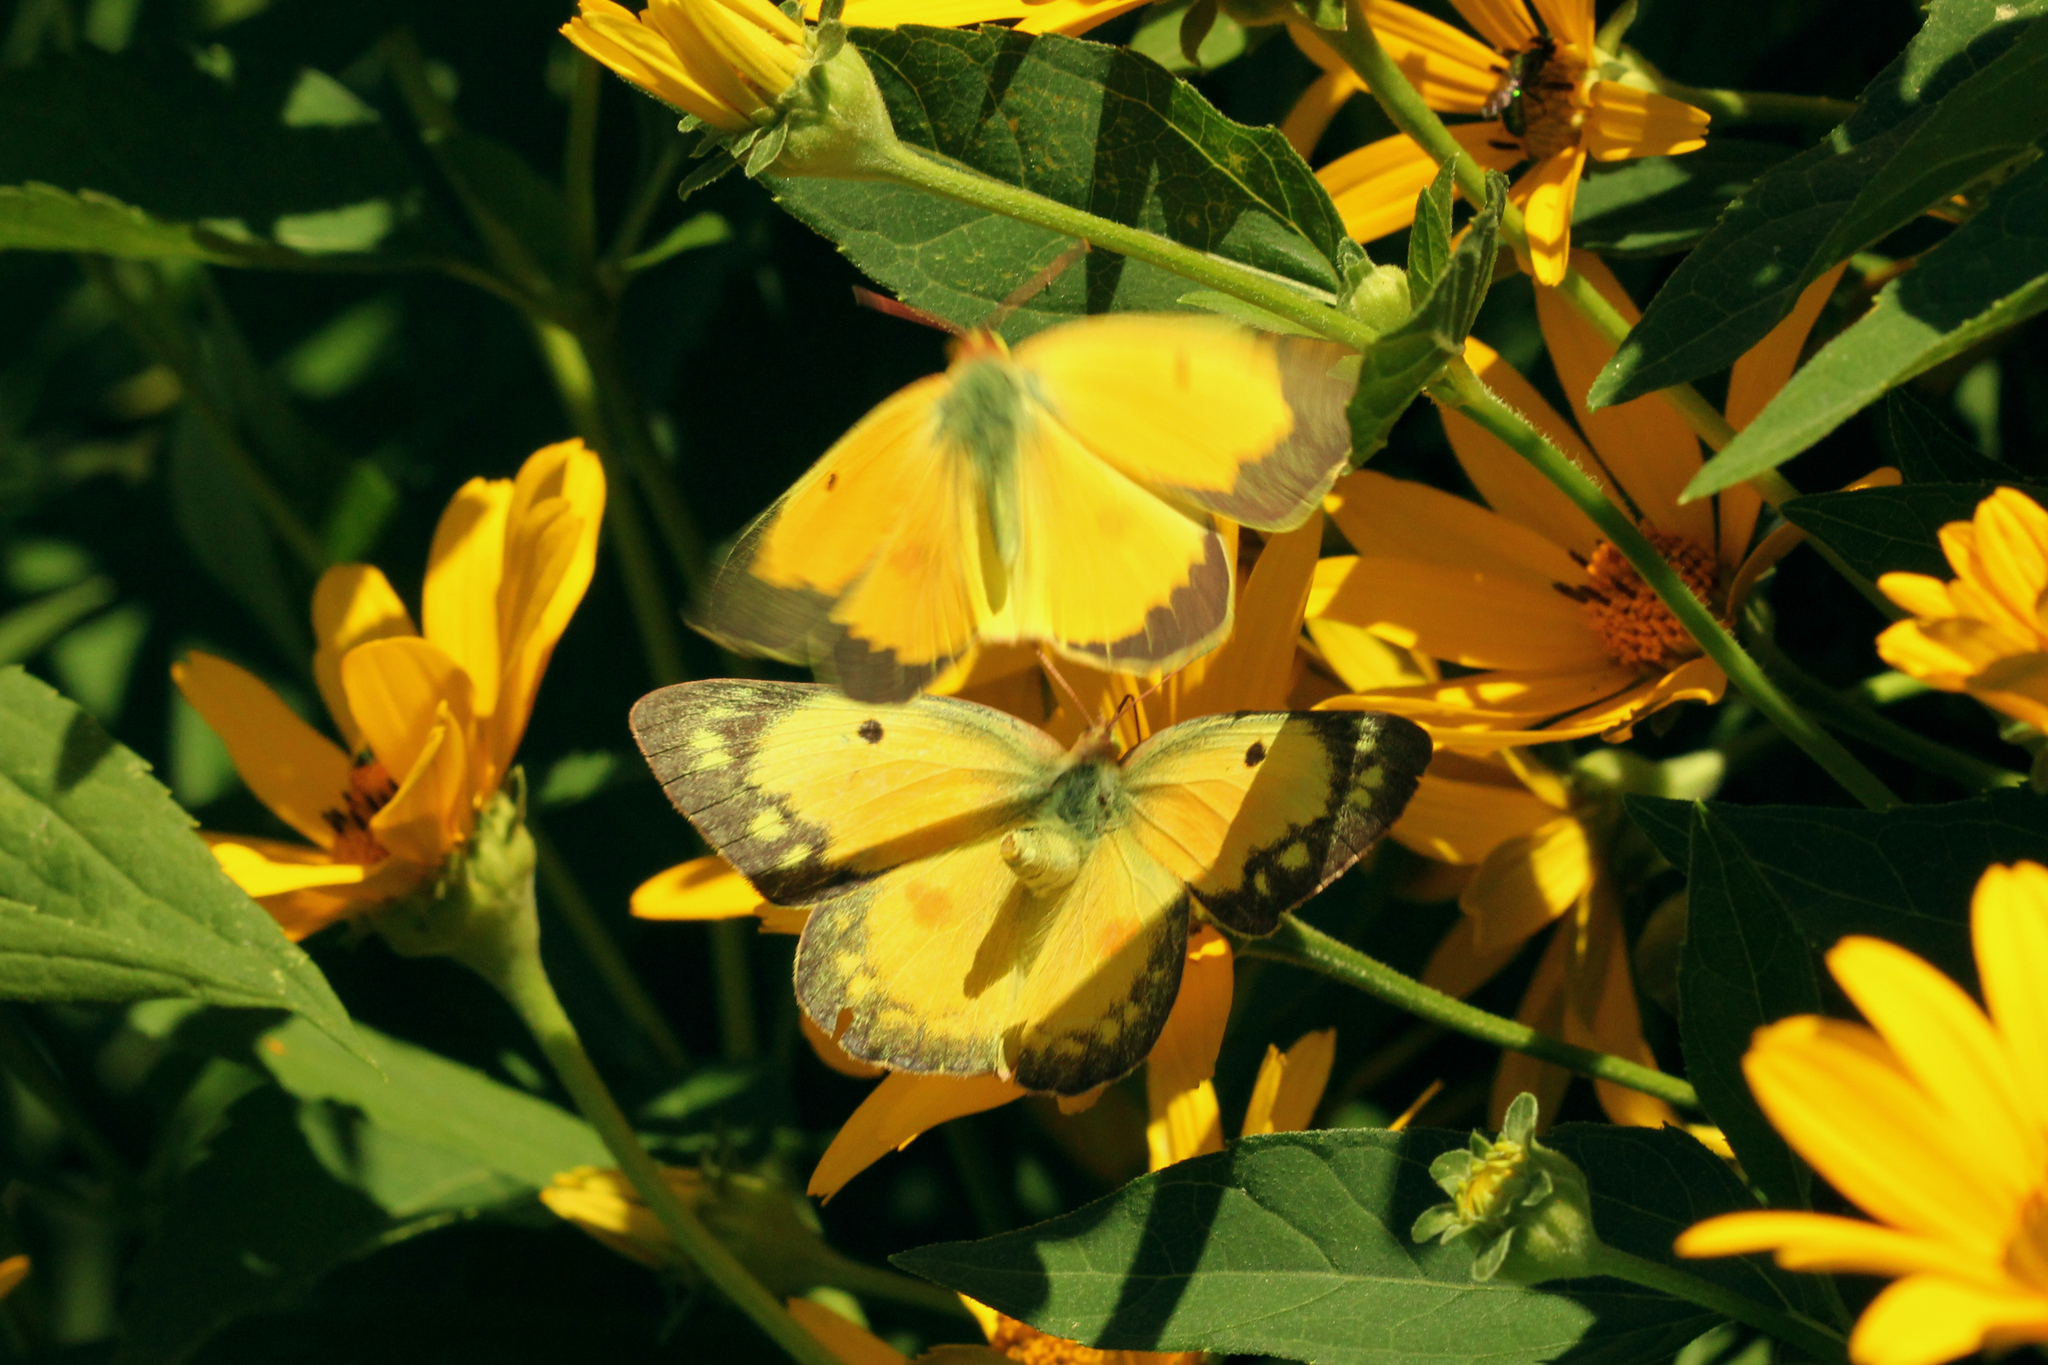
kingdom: Animalia
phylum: Arthropoda
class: Insecta
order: Lepidoptera
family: Pieridae
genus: Colias
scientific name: Colias eurytheme
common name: Alfalfa butterfly
